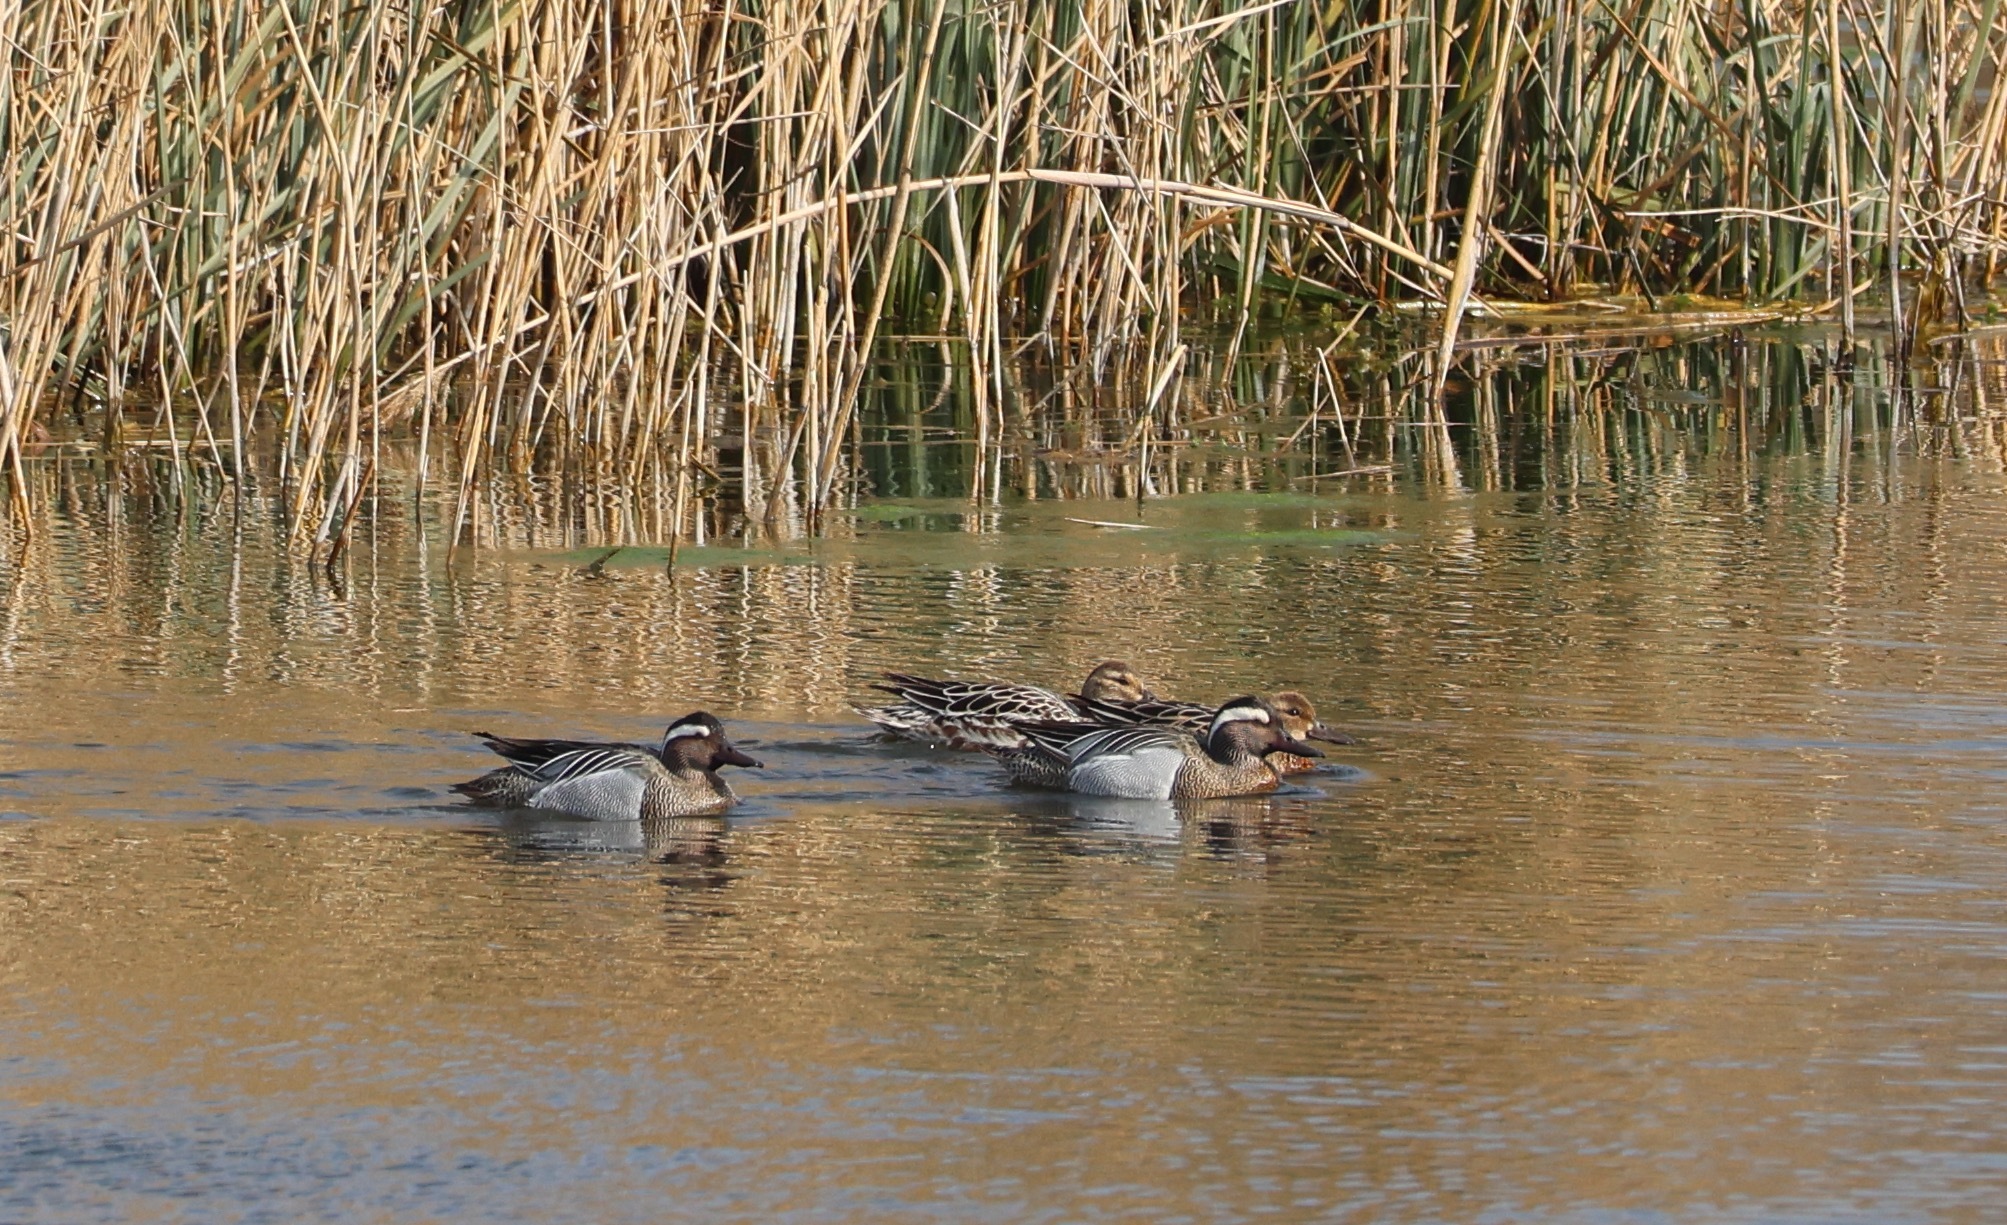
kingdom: Animalia
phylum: Chordata
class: Aves
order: Anseriformes
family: Anatidae
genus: Spatula
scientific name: Spatula querquedula
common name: Garganey
